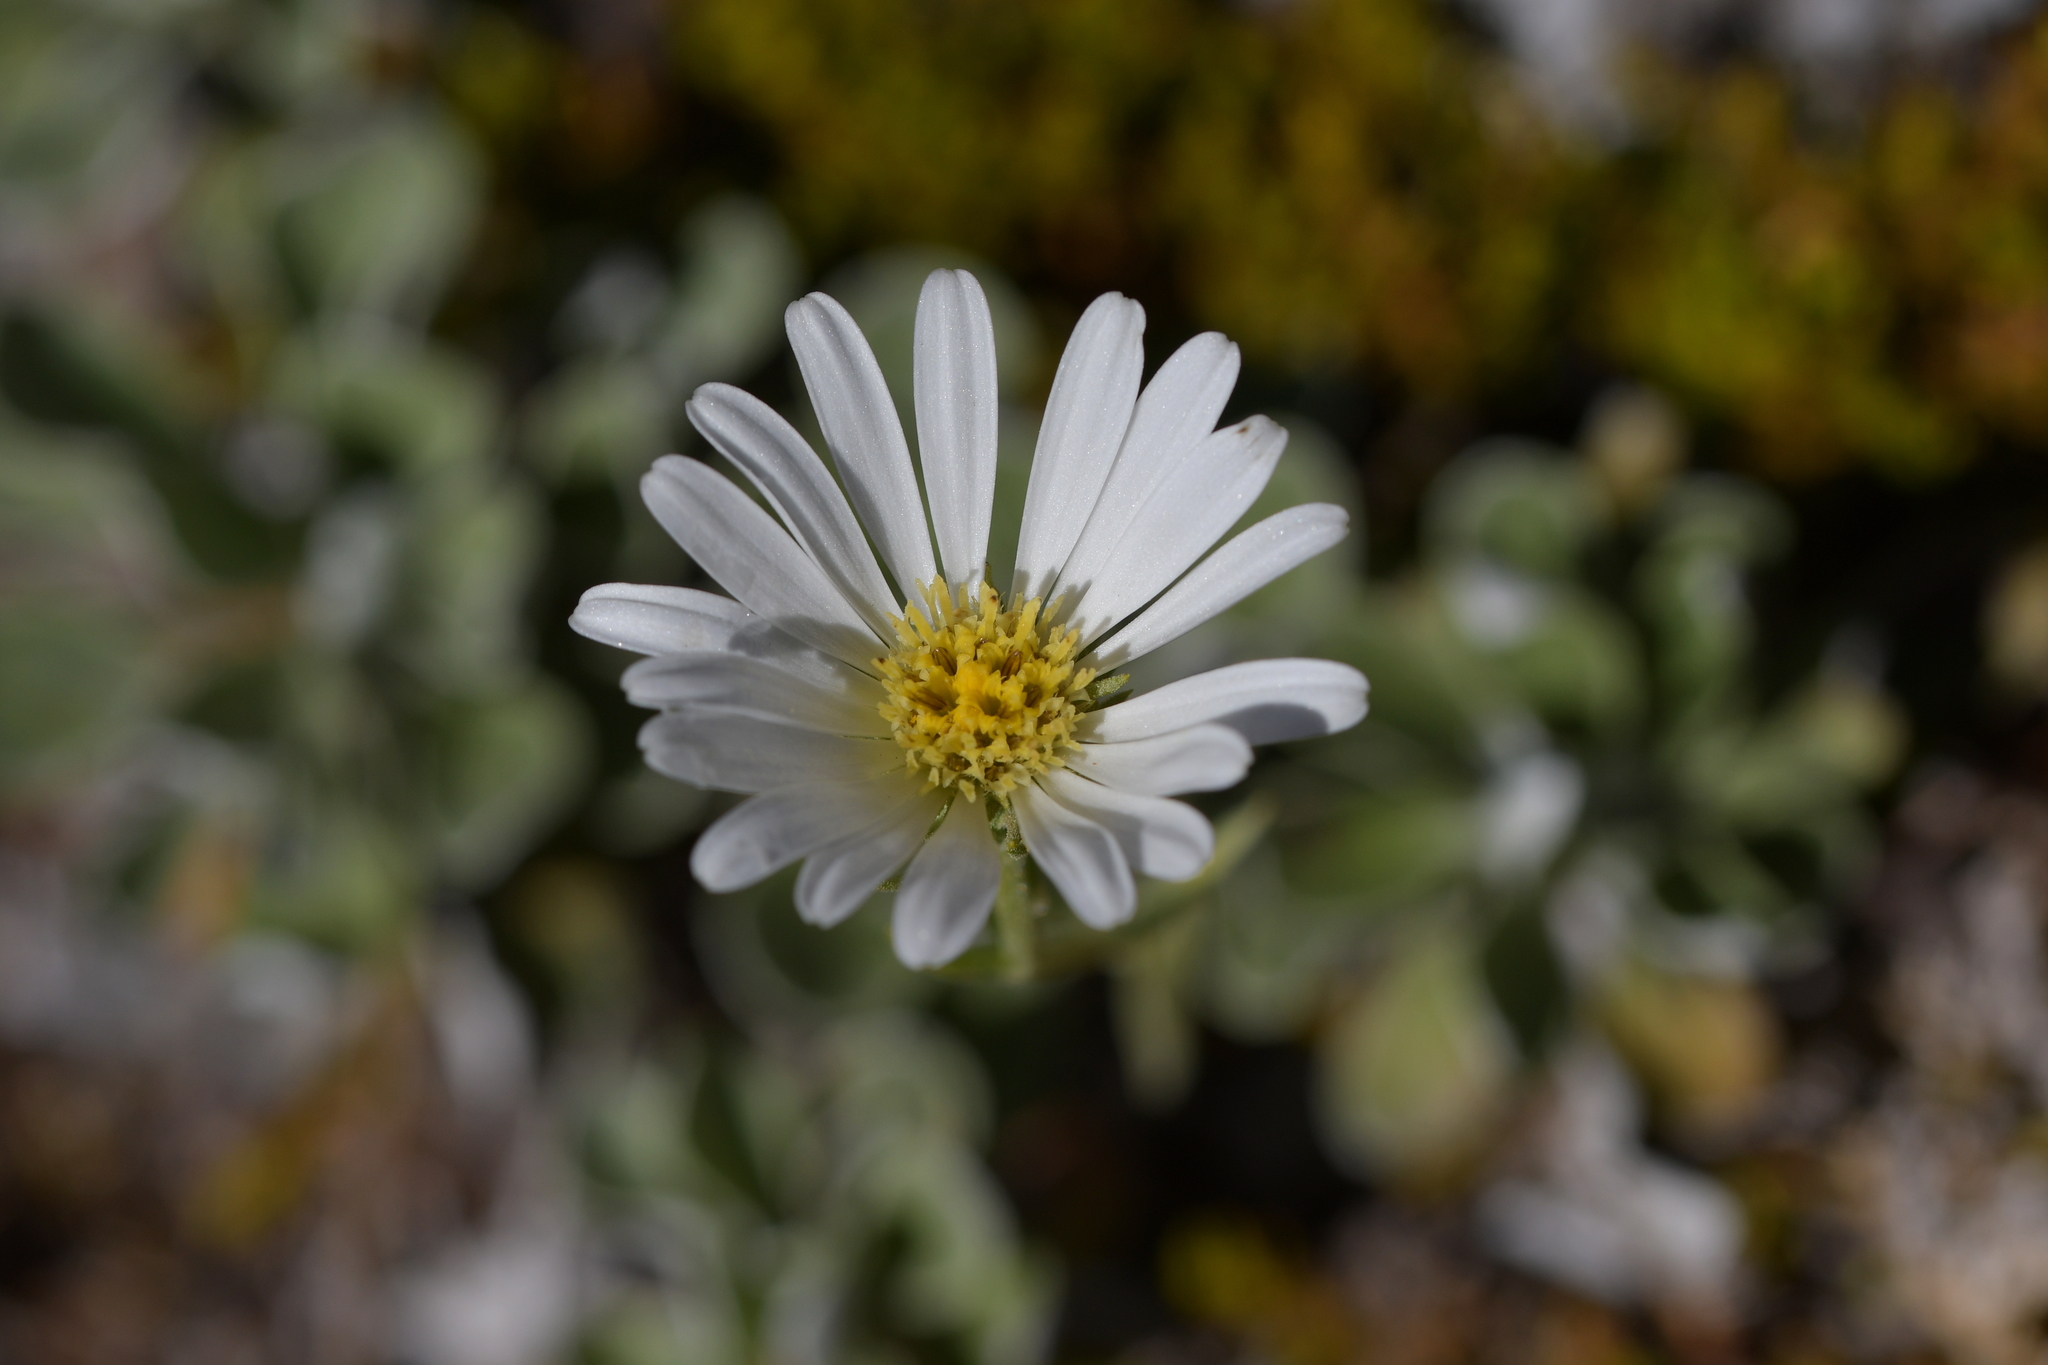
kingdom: Plantae
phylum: Tracheophyta
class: Magnoliopsida
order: Asterales
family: Asteraceae
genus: Celmisia
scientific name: Celmisia discolor
